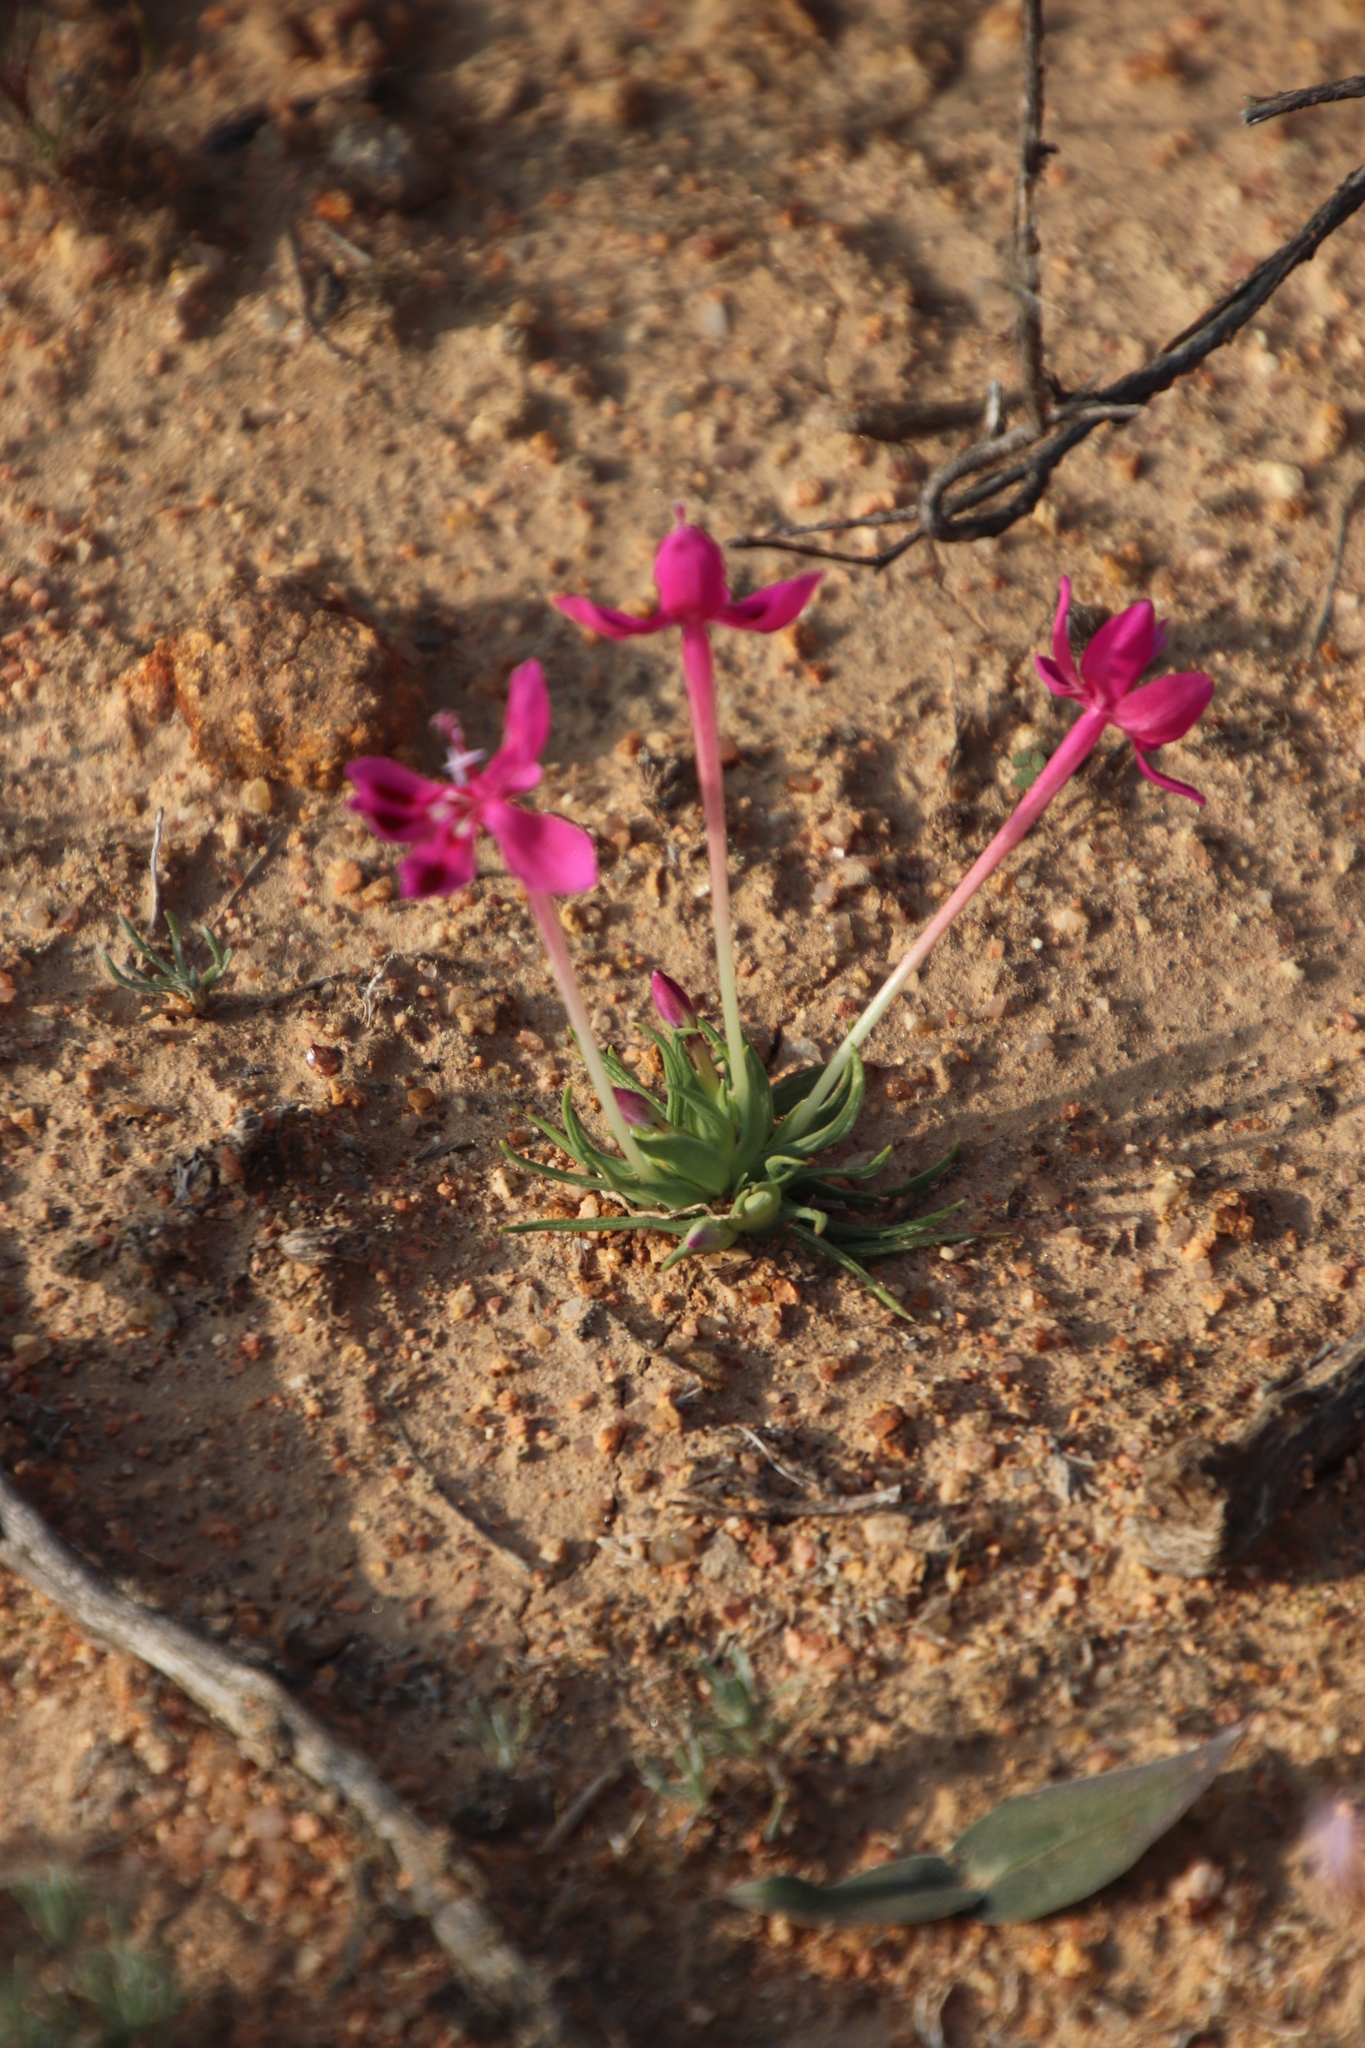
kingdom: Plantae
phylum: Tracheophyta
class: Liliopsida
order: Asparagales
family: Iridaceae
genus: Lapeirousia
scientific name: Lapeirousia silenoides
